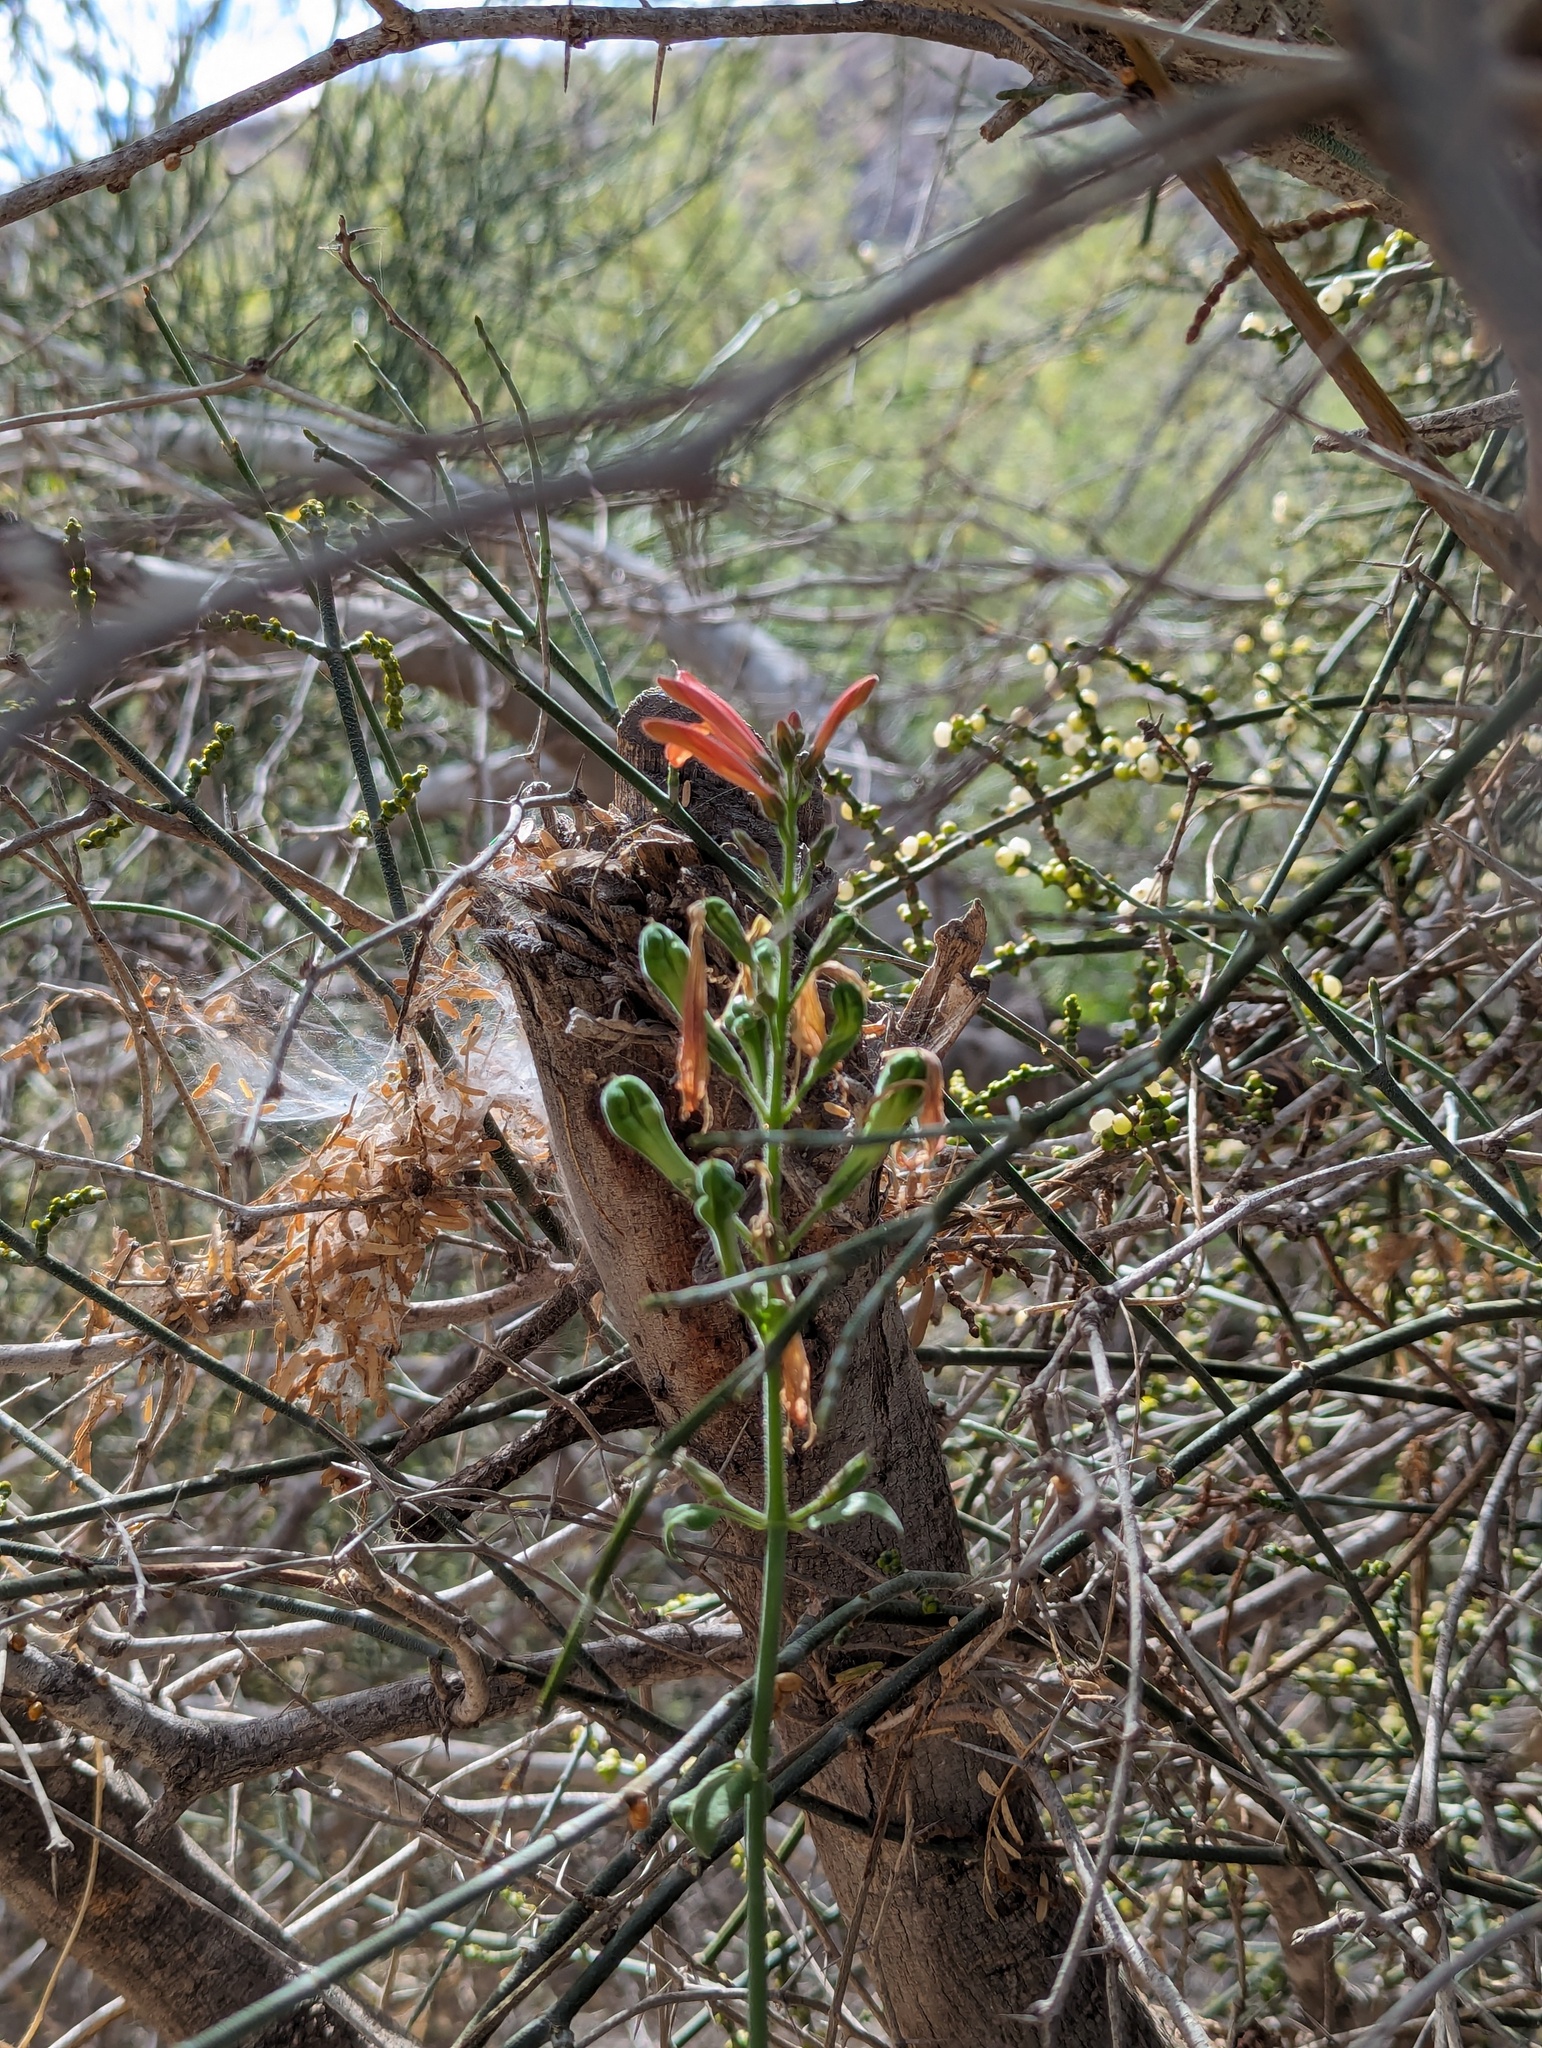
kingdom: Plantae
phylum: Tracheophyta
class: Magnoliopsida
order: Lamiales
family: Acanthaceae
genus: Justicia
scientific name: Justicia californica
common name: Chuparosa-honeysuckle
